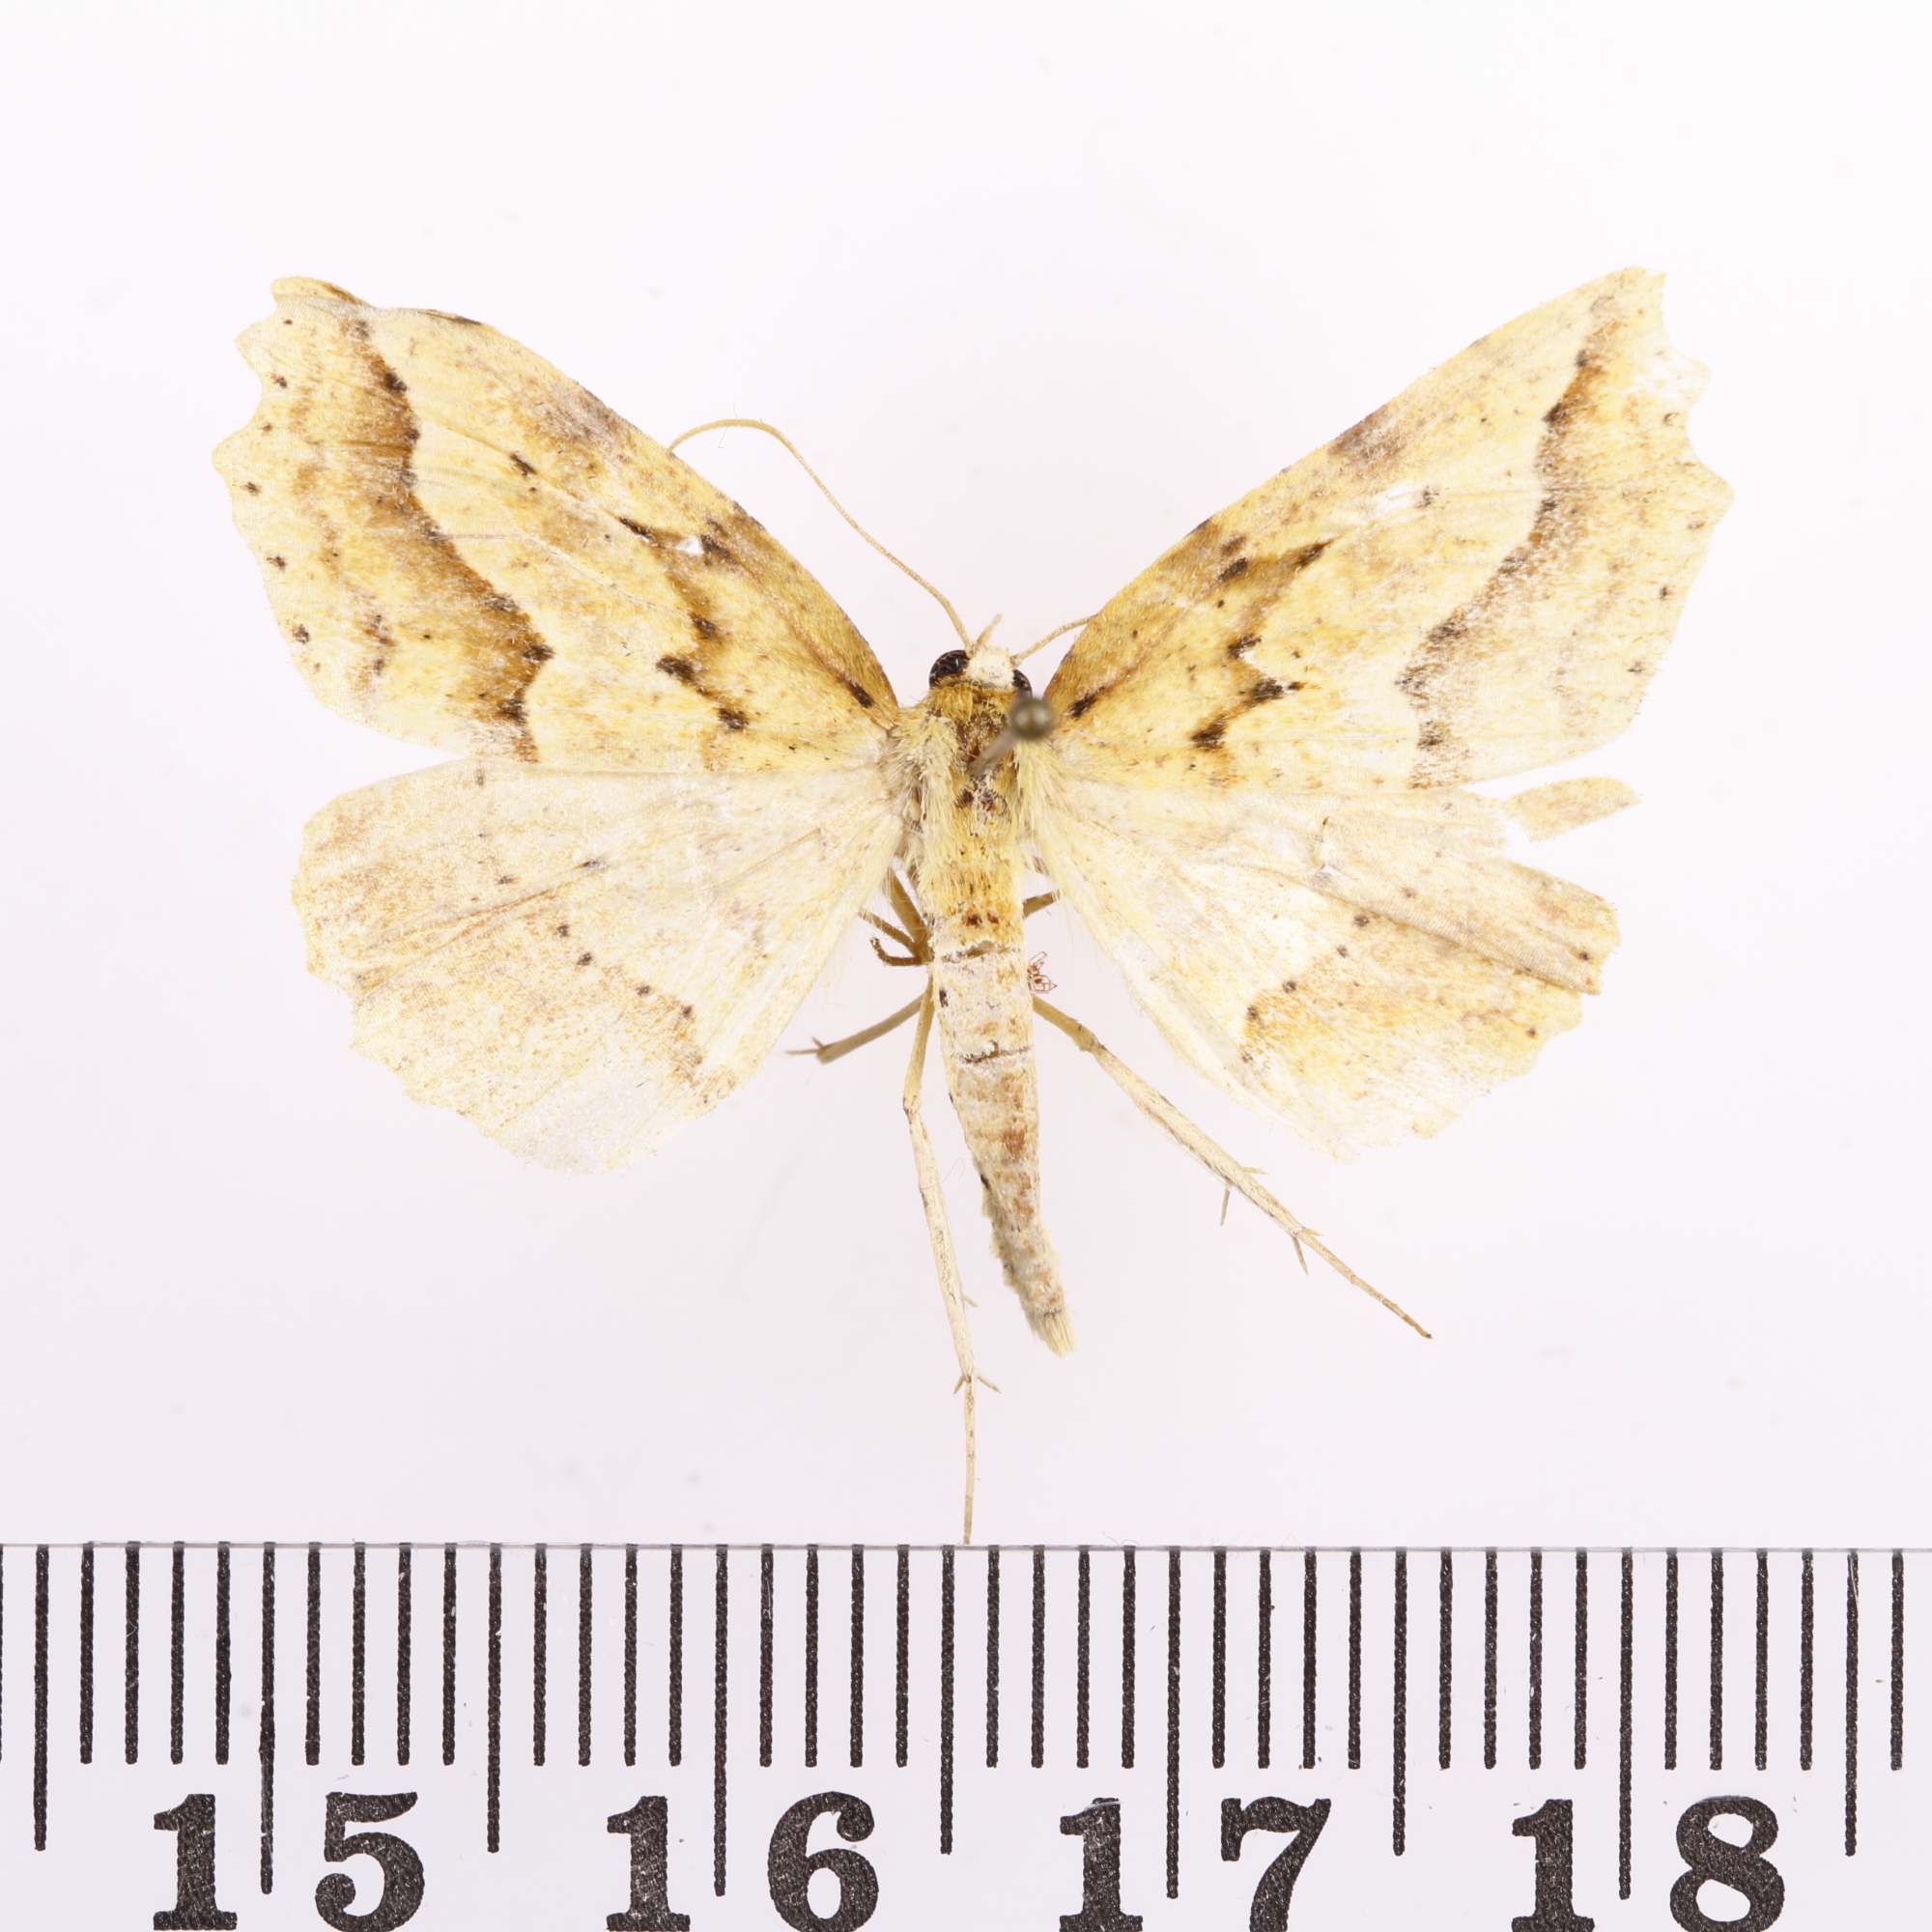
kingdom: Animalia
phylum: Arthropoda
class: Insecta
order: Lepidoptera
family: Geometridae
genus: Ischalis
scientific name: Ischalis variabilis
